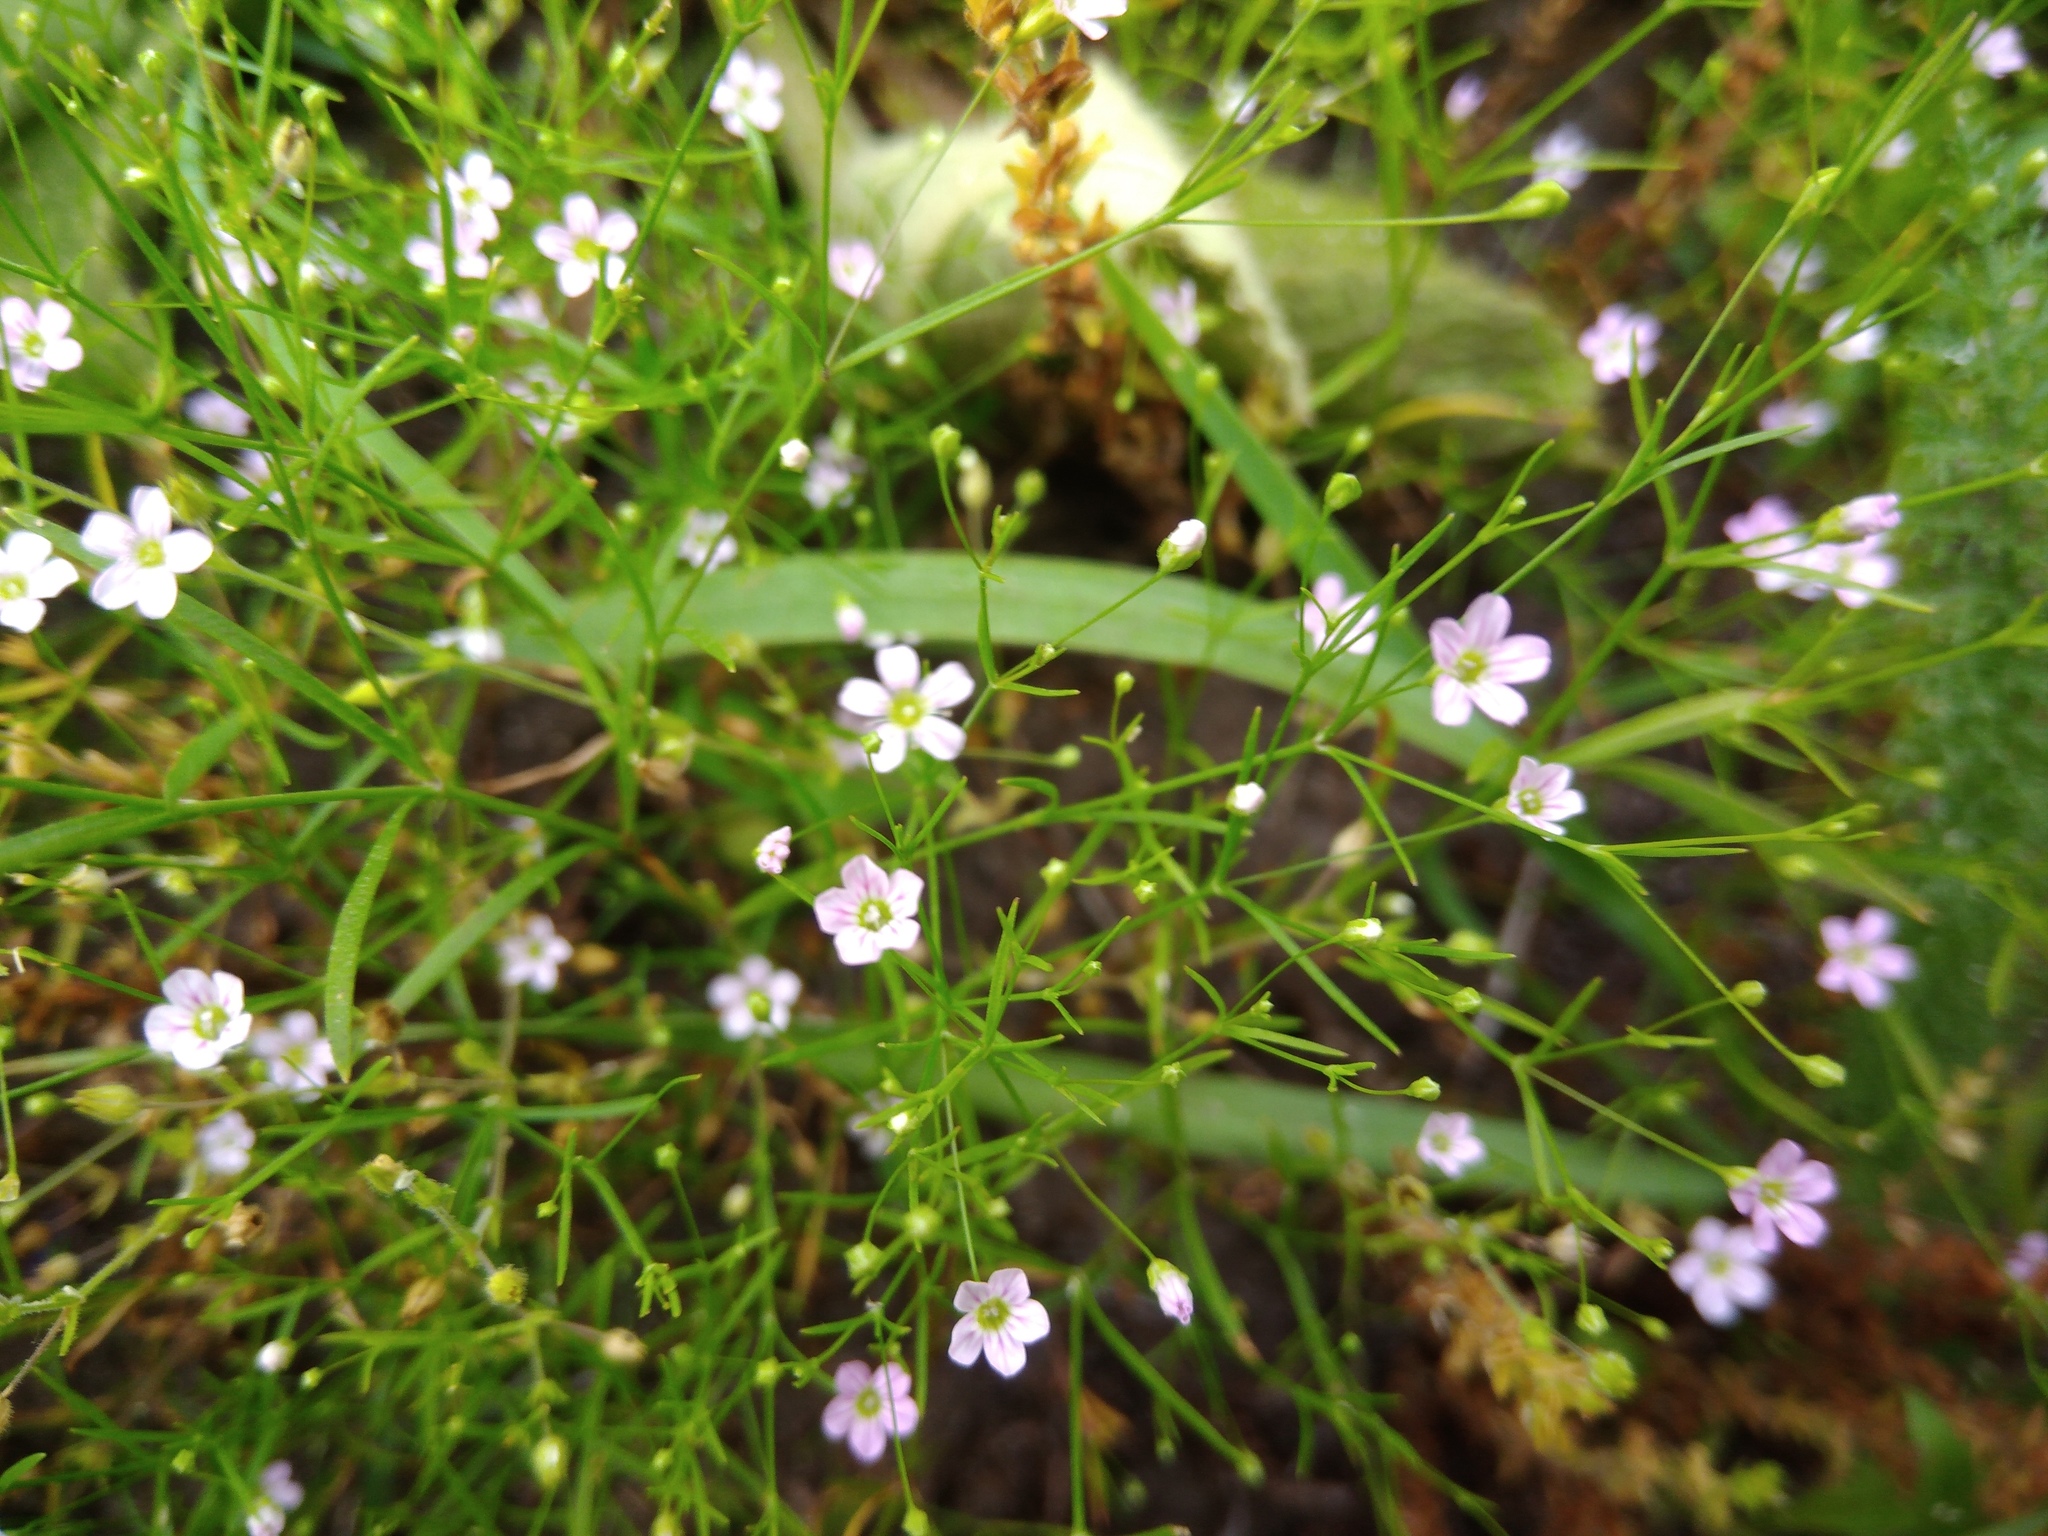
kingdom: Plantae
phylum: Tracheophyta
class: Magnoliopsida
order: Caryophyllales
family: Caryophyllaceae
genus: Psammophiliella
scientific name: Psammophiliella muralis
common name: Cushion baby's-breath
